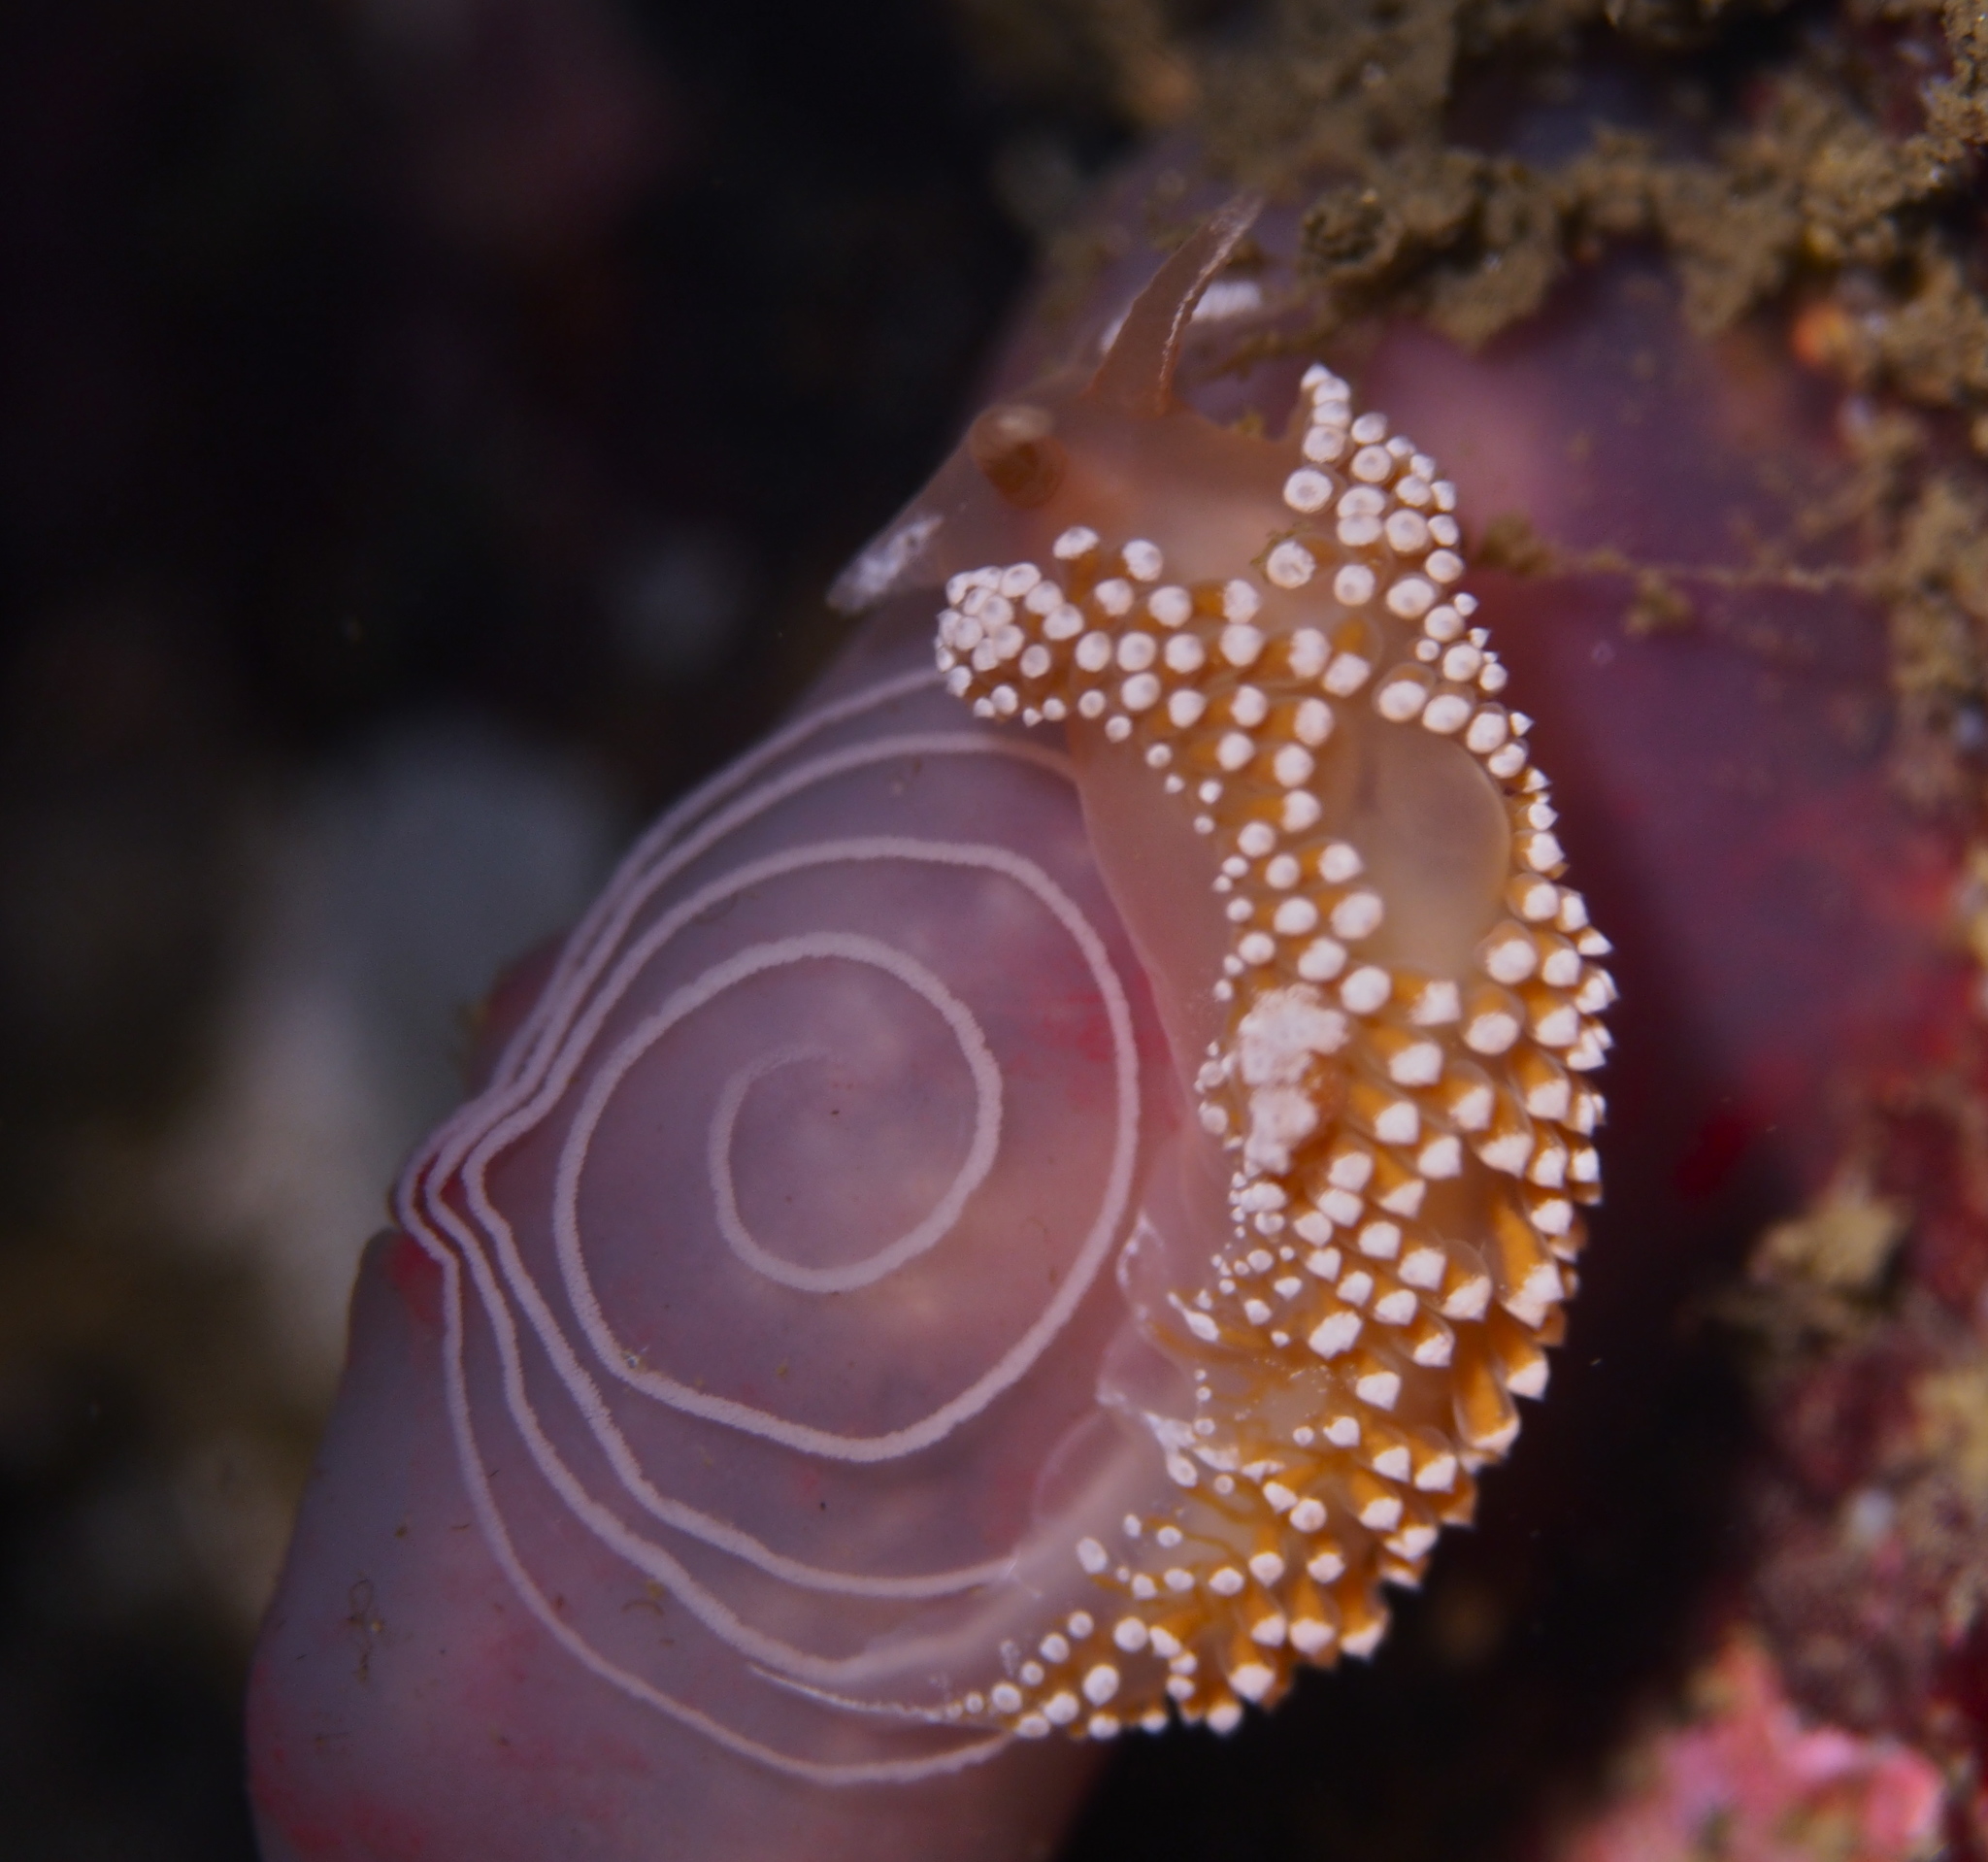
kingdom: Animalia
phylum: Mollusca
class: Gastropoda
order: Nudibranchia
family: Coryphellidae
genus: Coryphella
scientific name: Coryphella verrucosa
